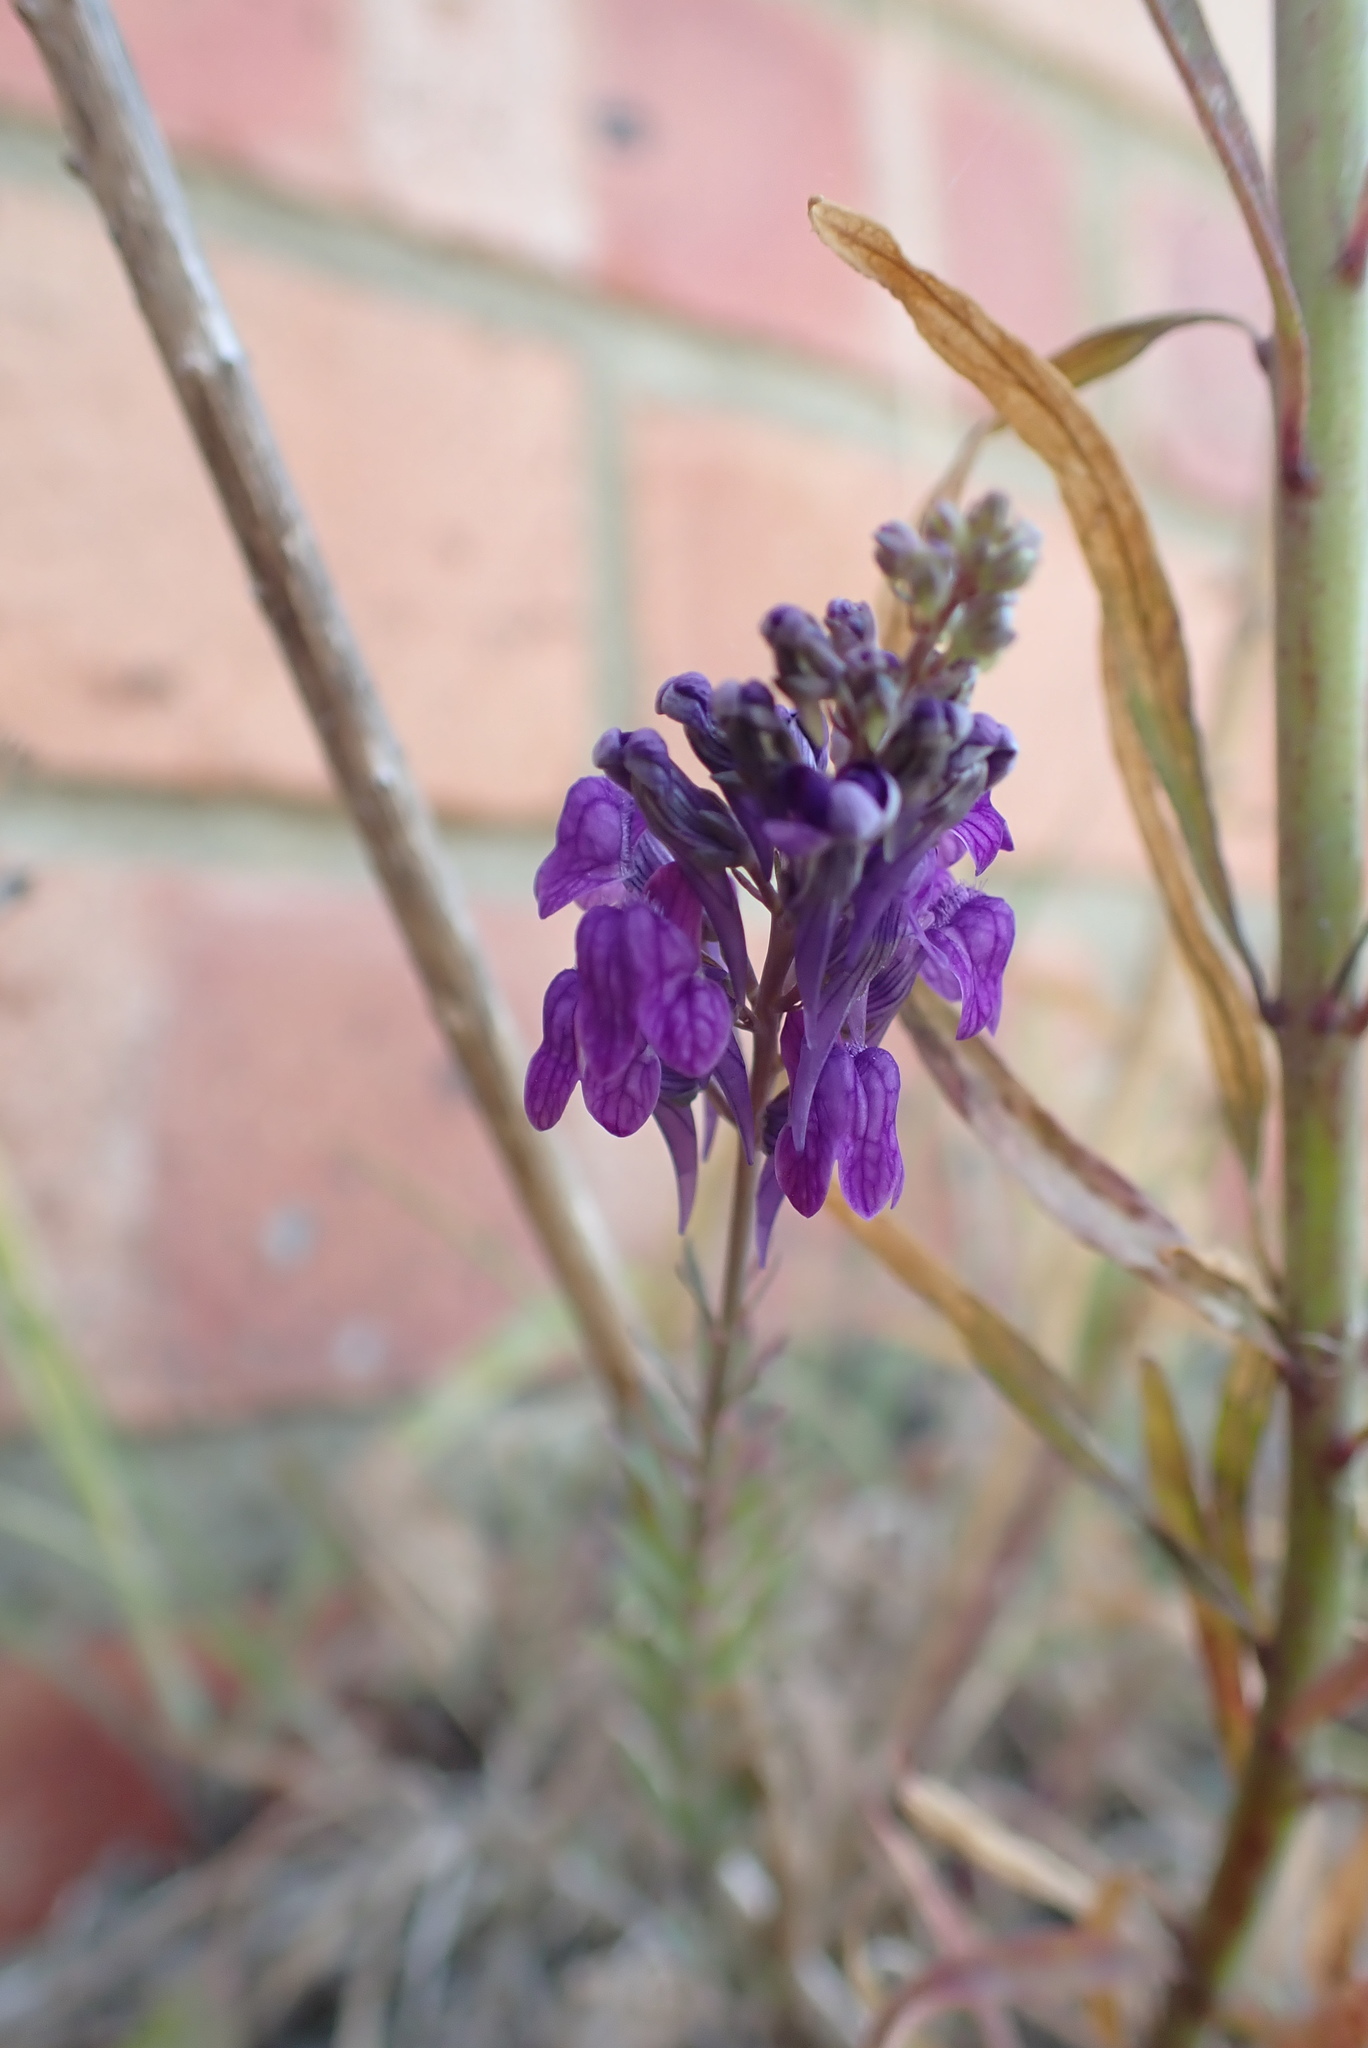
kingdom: Plantae
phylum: Tracheophyta
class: Magnoliopsida
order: Lamiales
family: Plantaginaceae
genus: Linaria
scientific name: Linaria purpurea
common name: Purple toadflax
